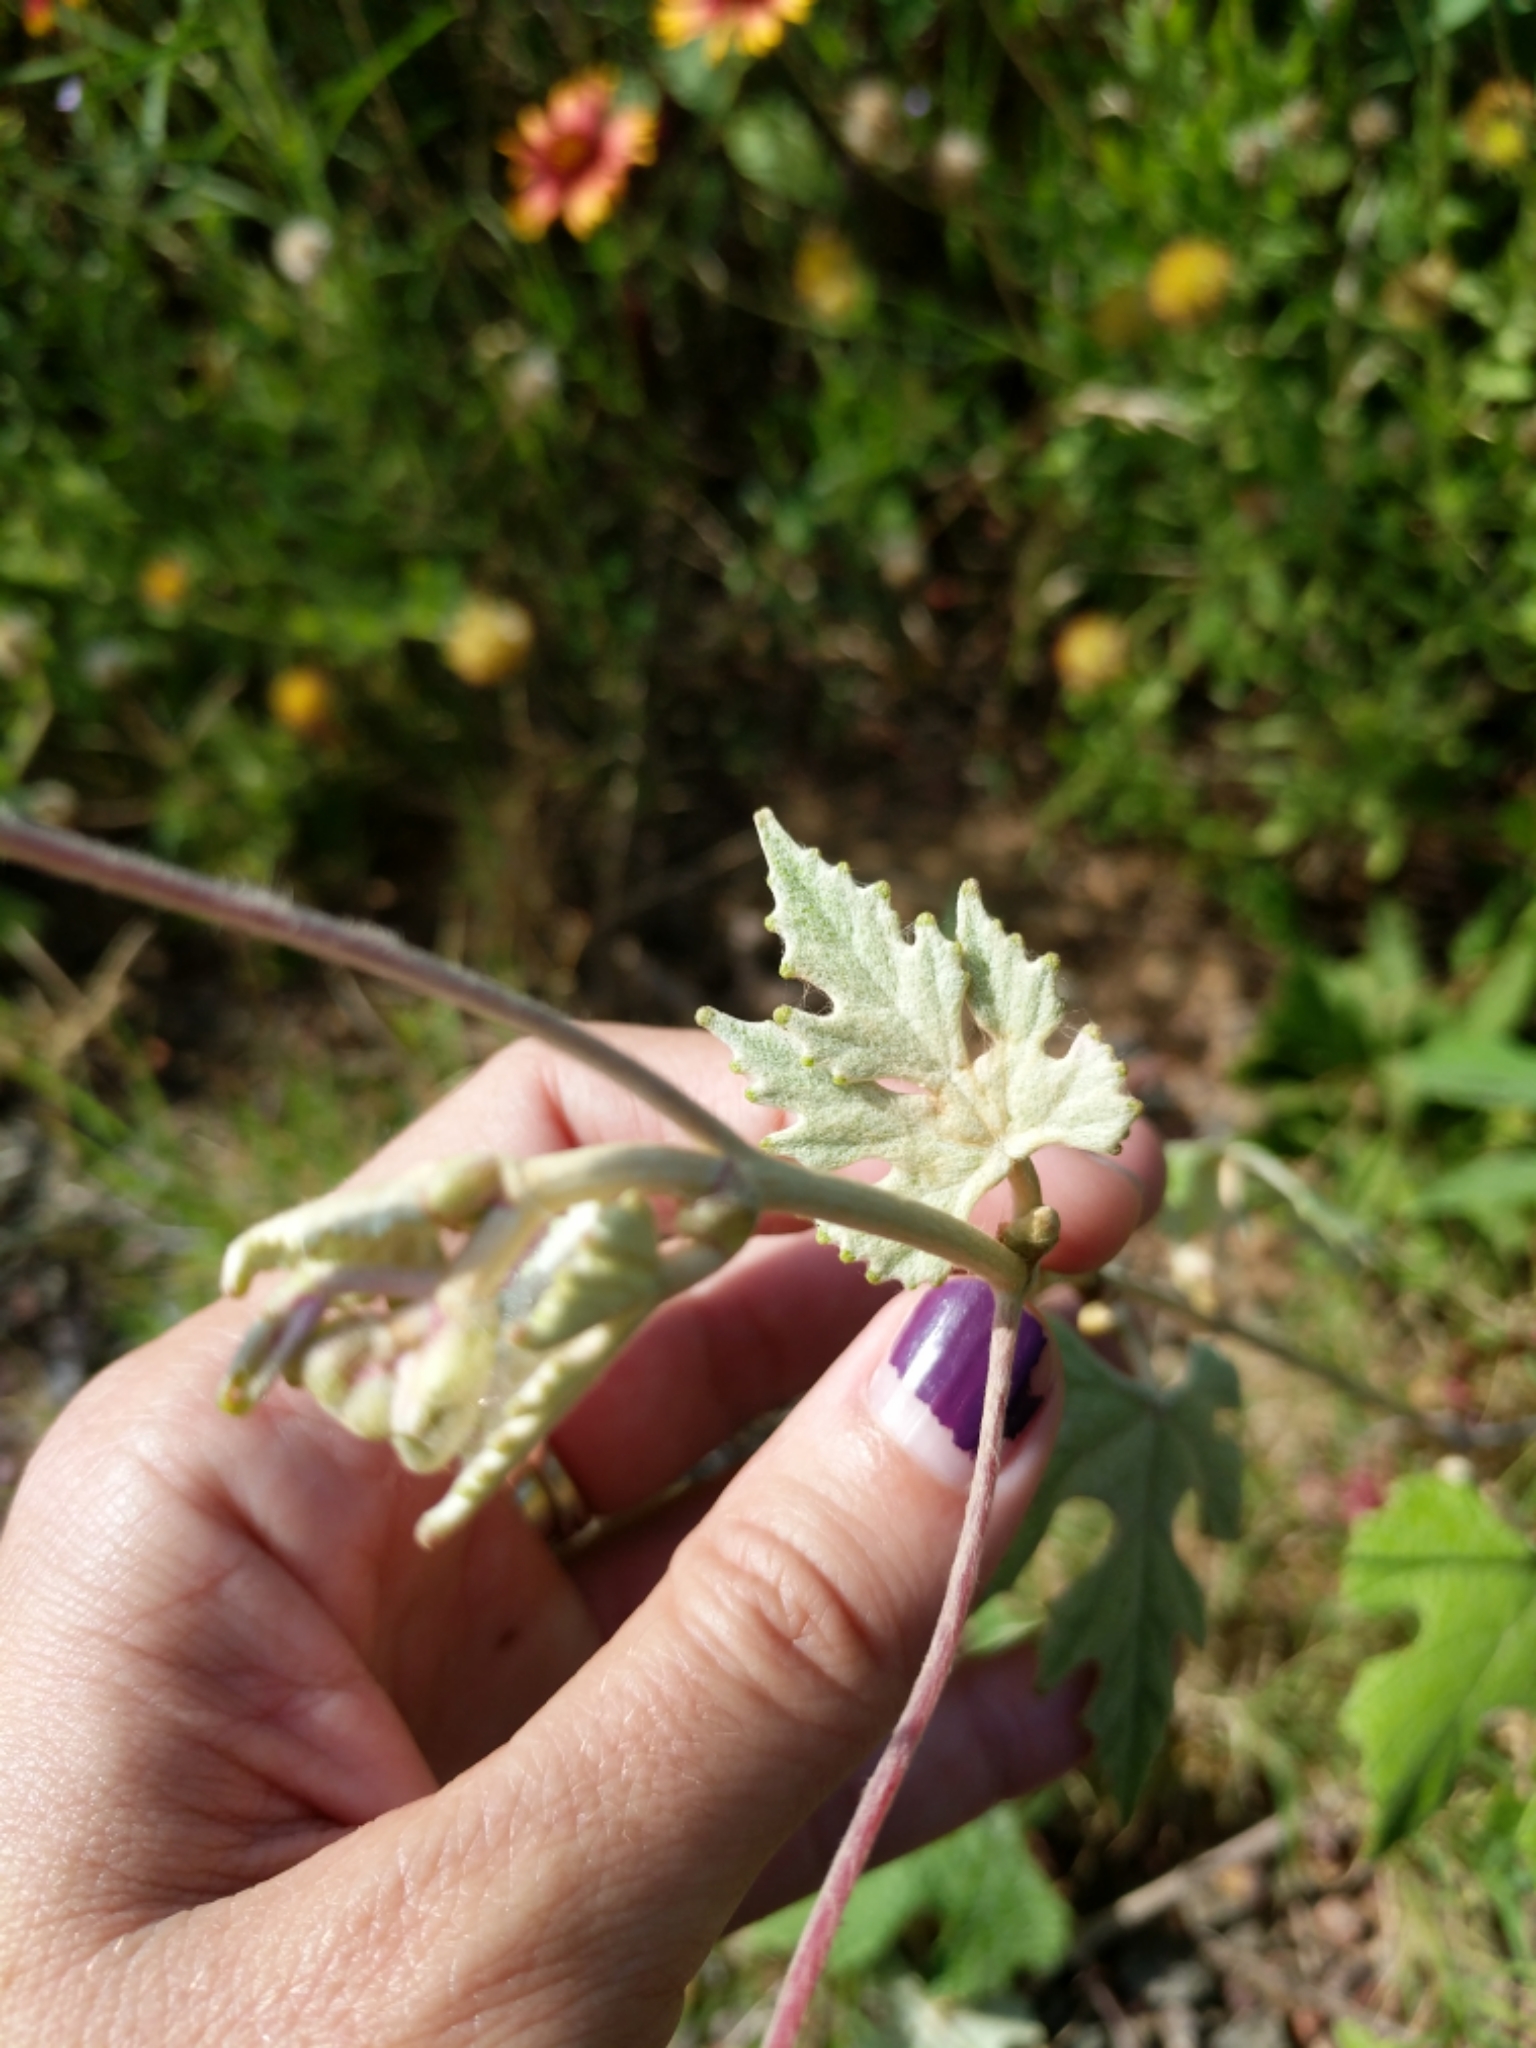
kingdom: Plantae
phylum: Tracheophyta
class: Magnoliopsida
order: Vitales
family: Vitaceae
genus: Vitis
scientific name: Vitis mustangensis
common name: Mustang grape
